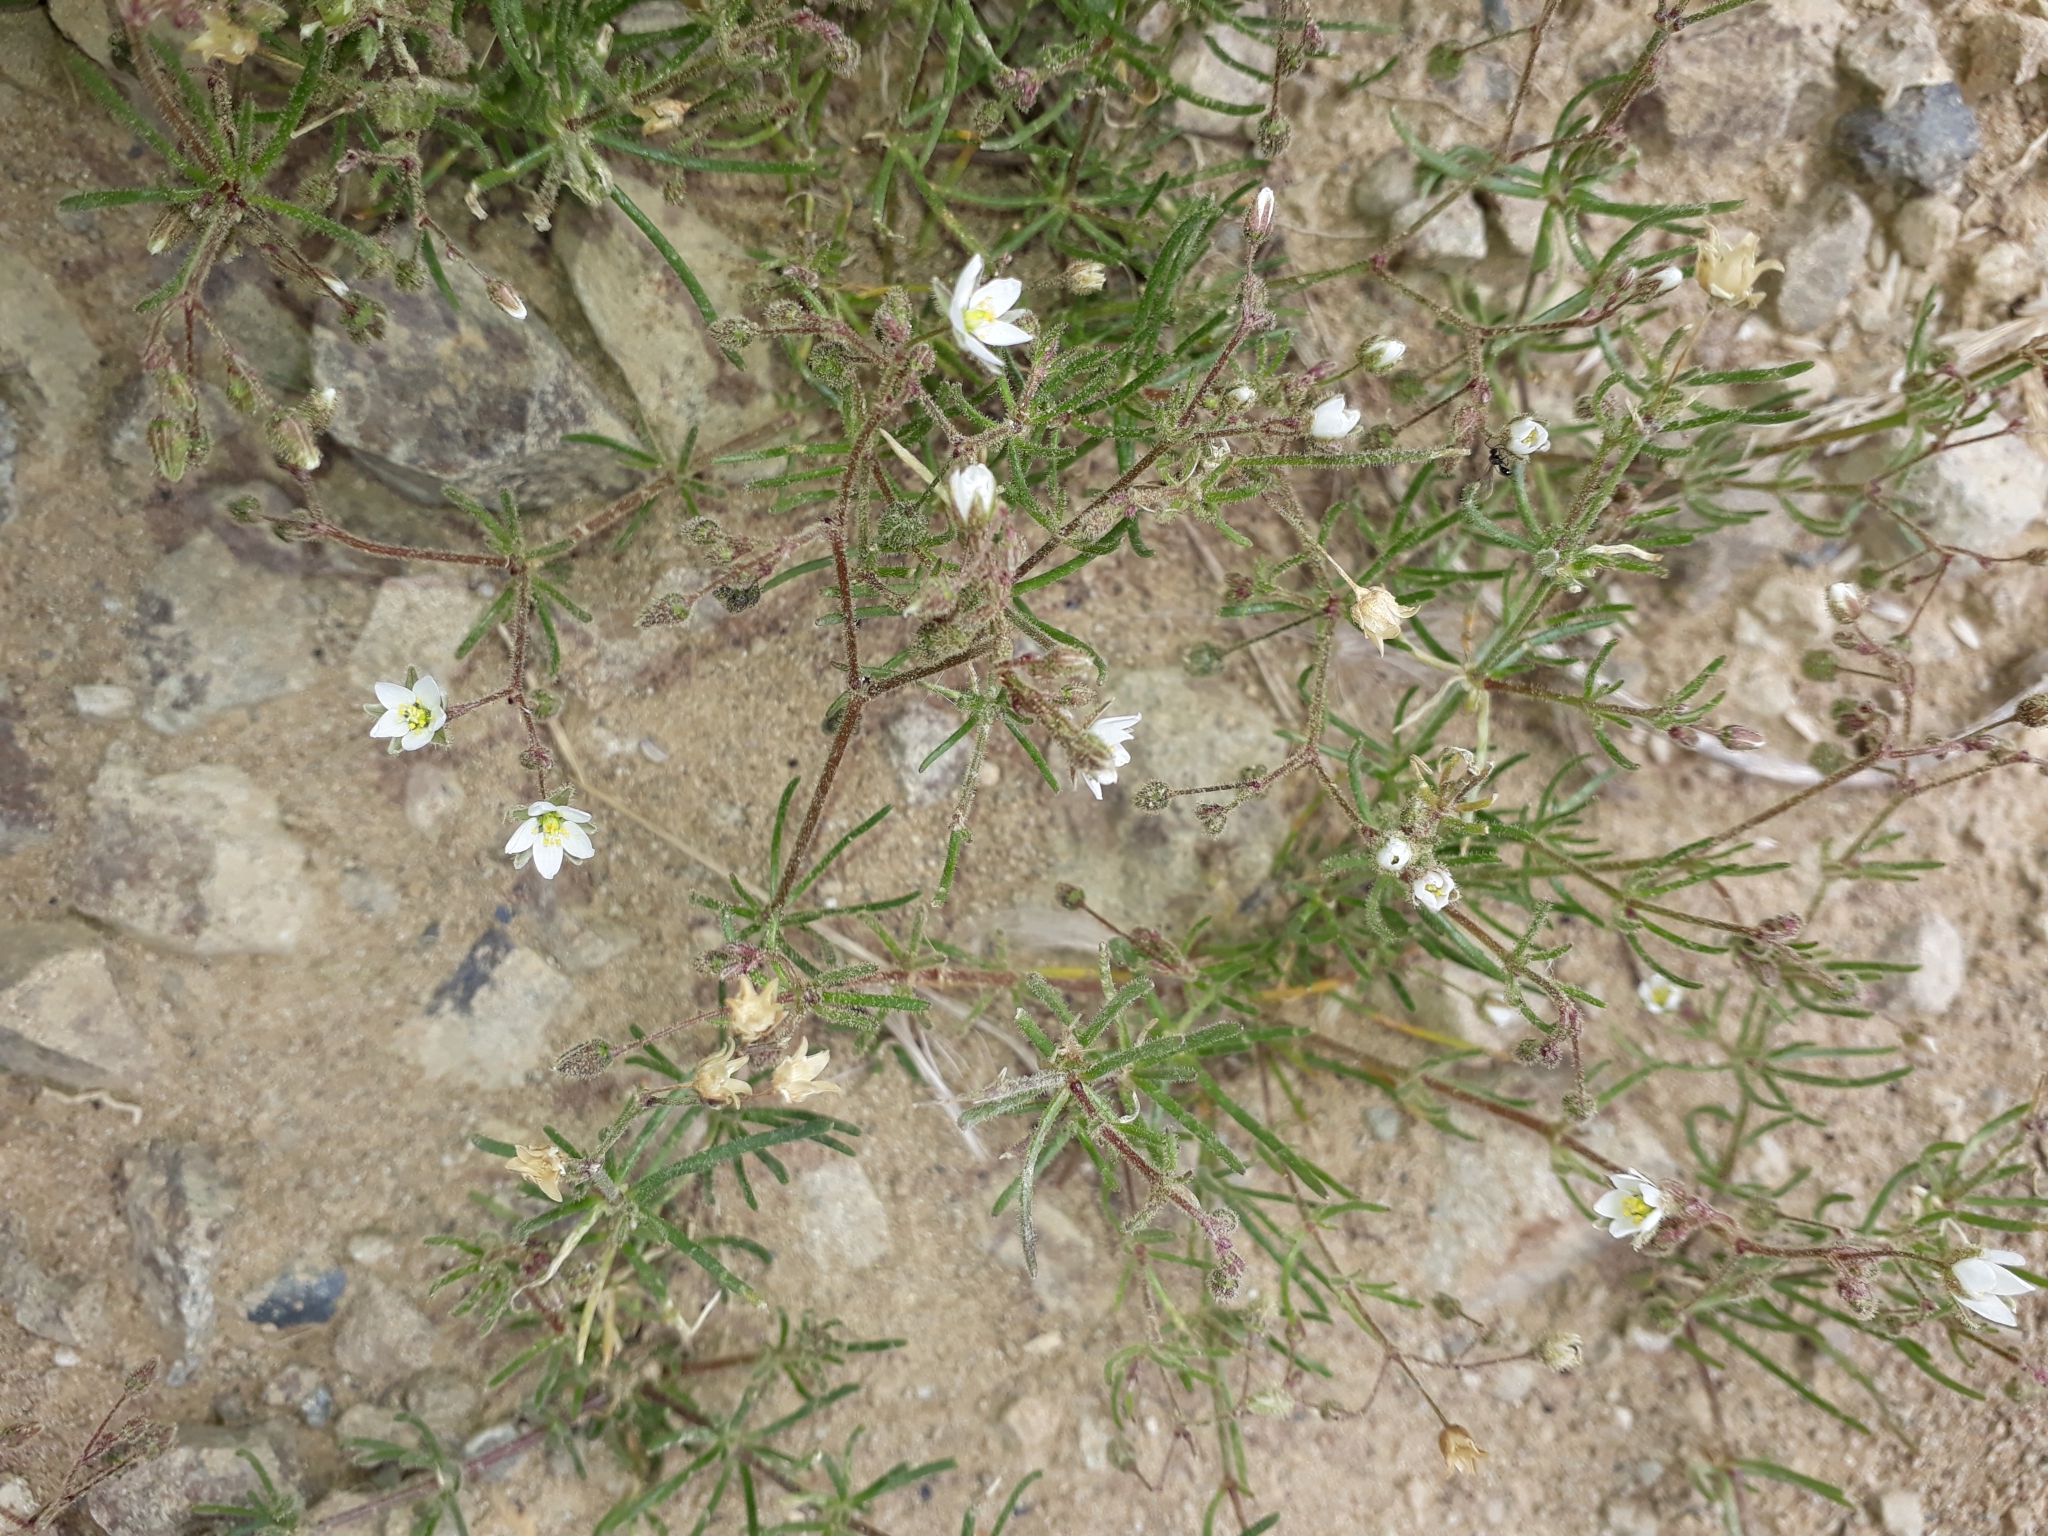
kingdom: Plantae
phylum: Tracheophyta
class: Magnoliopsida
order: Caryophyllales
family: Caryophyllaceae
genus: Spergula
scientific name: Spergula arvensis
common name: Corn spurrey
